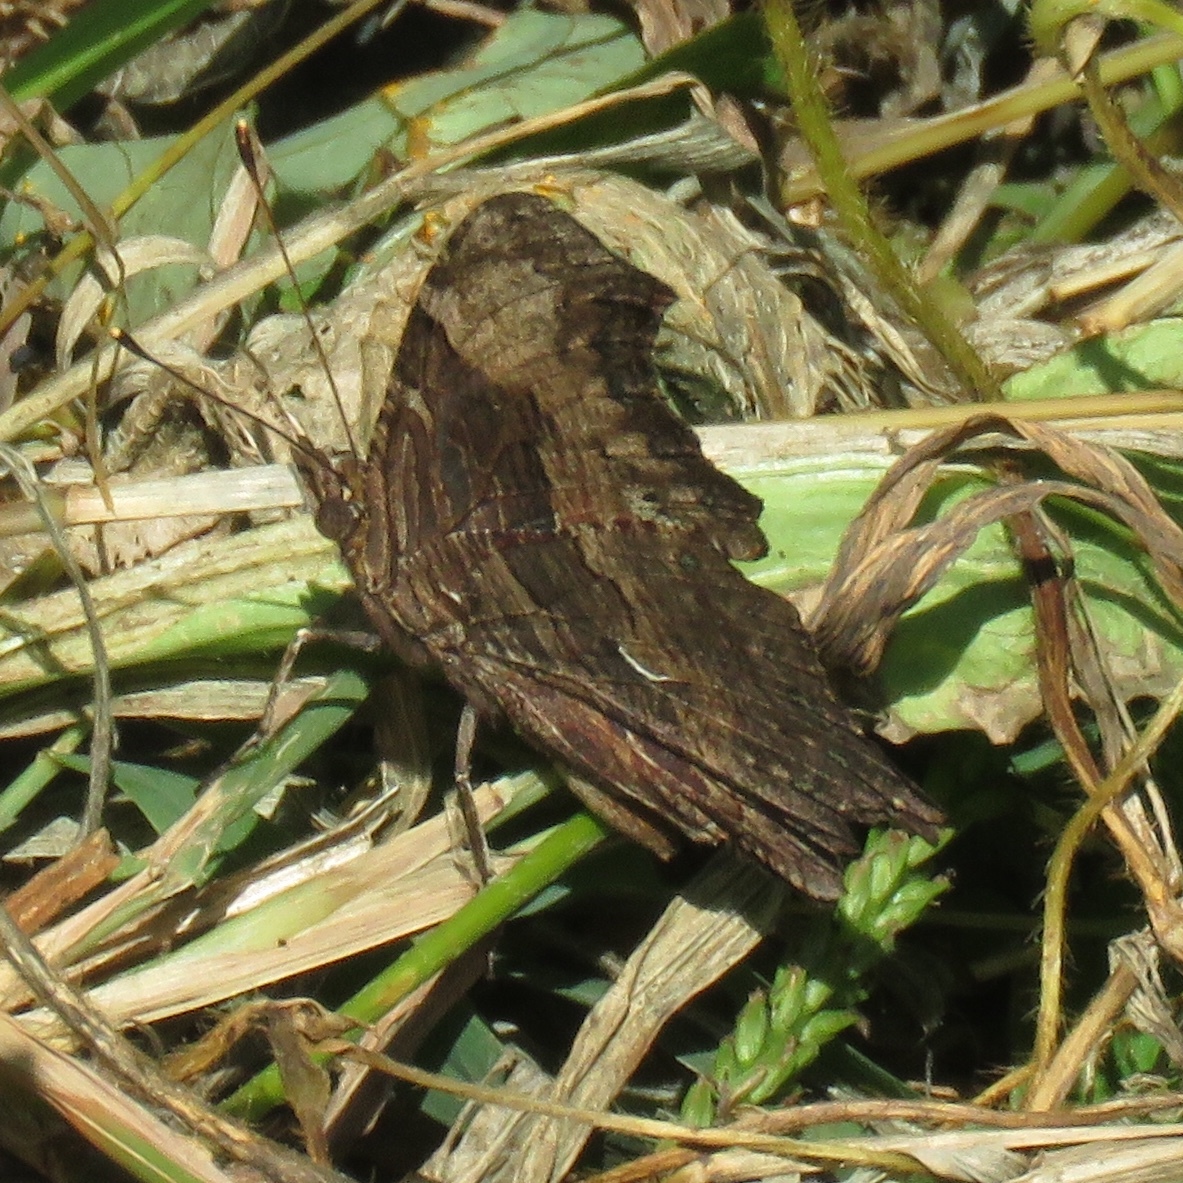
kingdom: Animalia
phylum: Arthropoda
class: Insecta
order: Lepidoptera
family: Nymphalidae
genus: Polygonia
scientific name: Polygonia progne
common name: Gray comma
